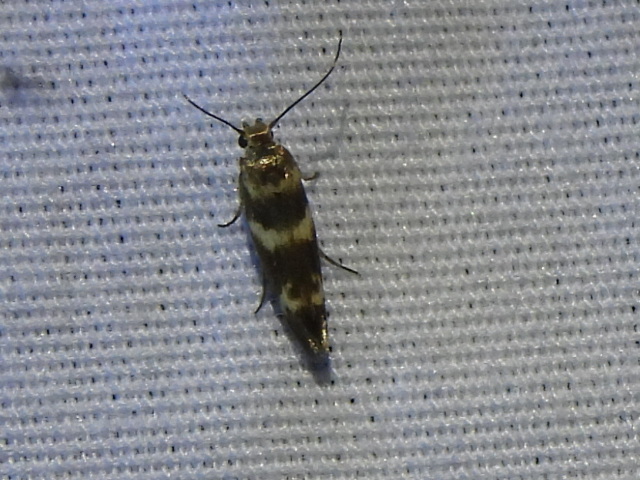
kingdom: Animalia
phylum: Arthropoda
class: Insecta
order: Lepidoptera
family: Scythrididae
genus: Scythris
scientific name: Scythris trivinctella
